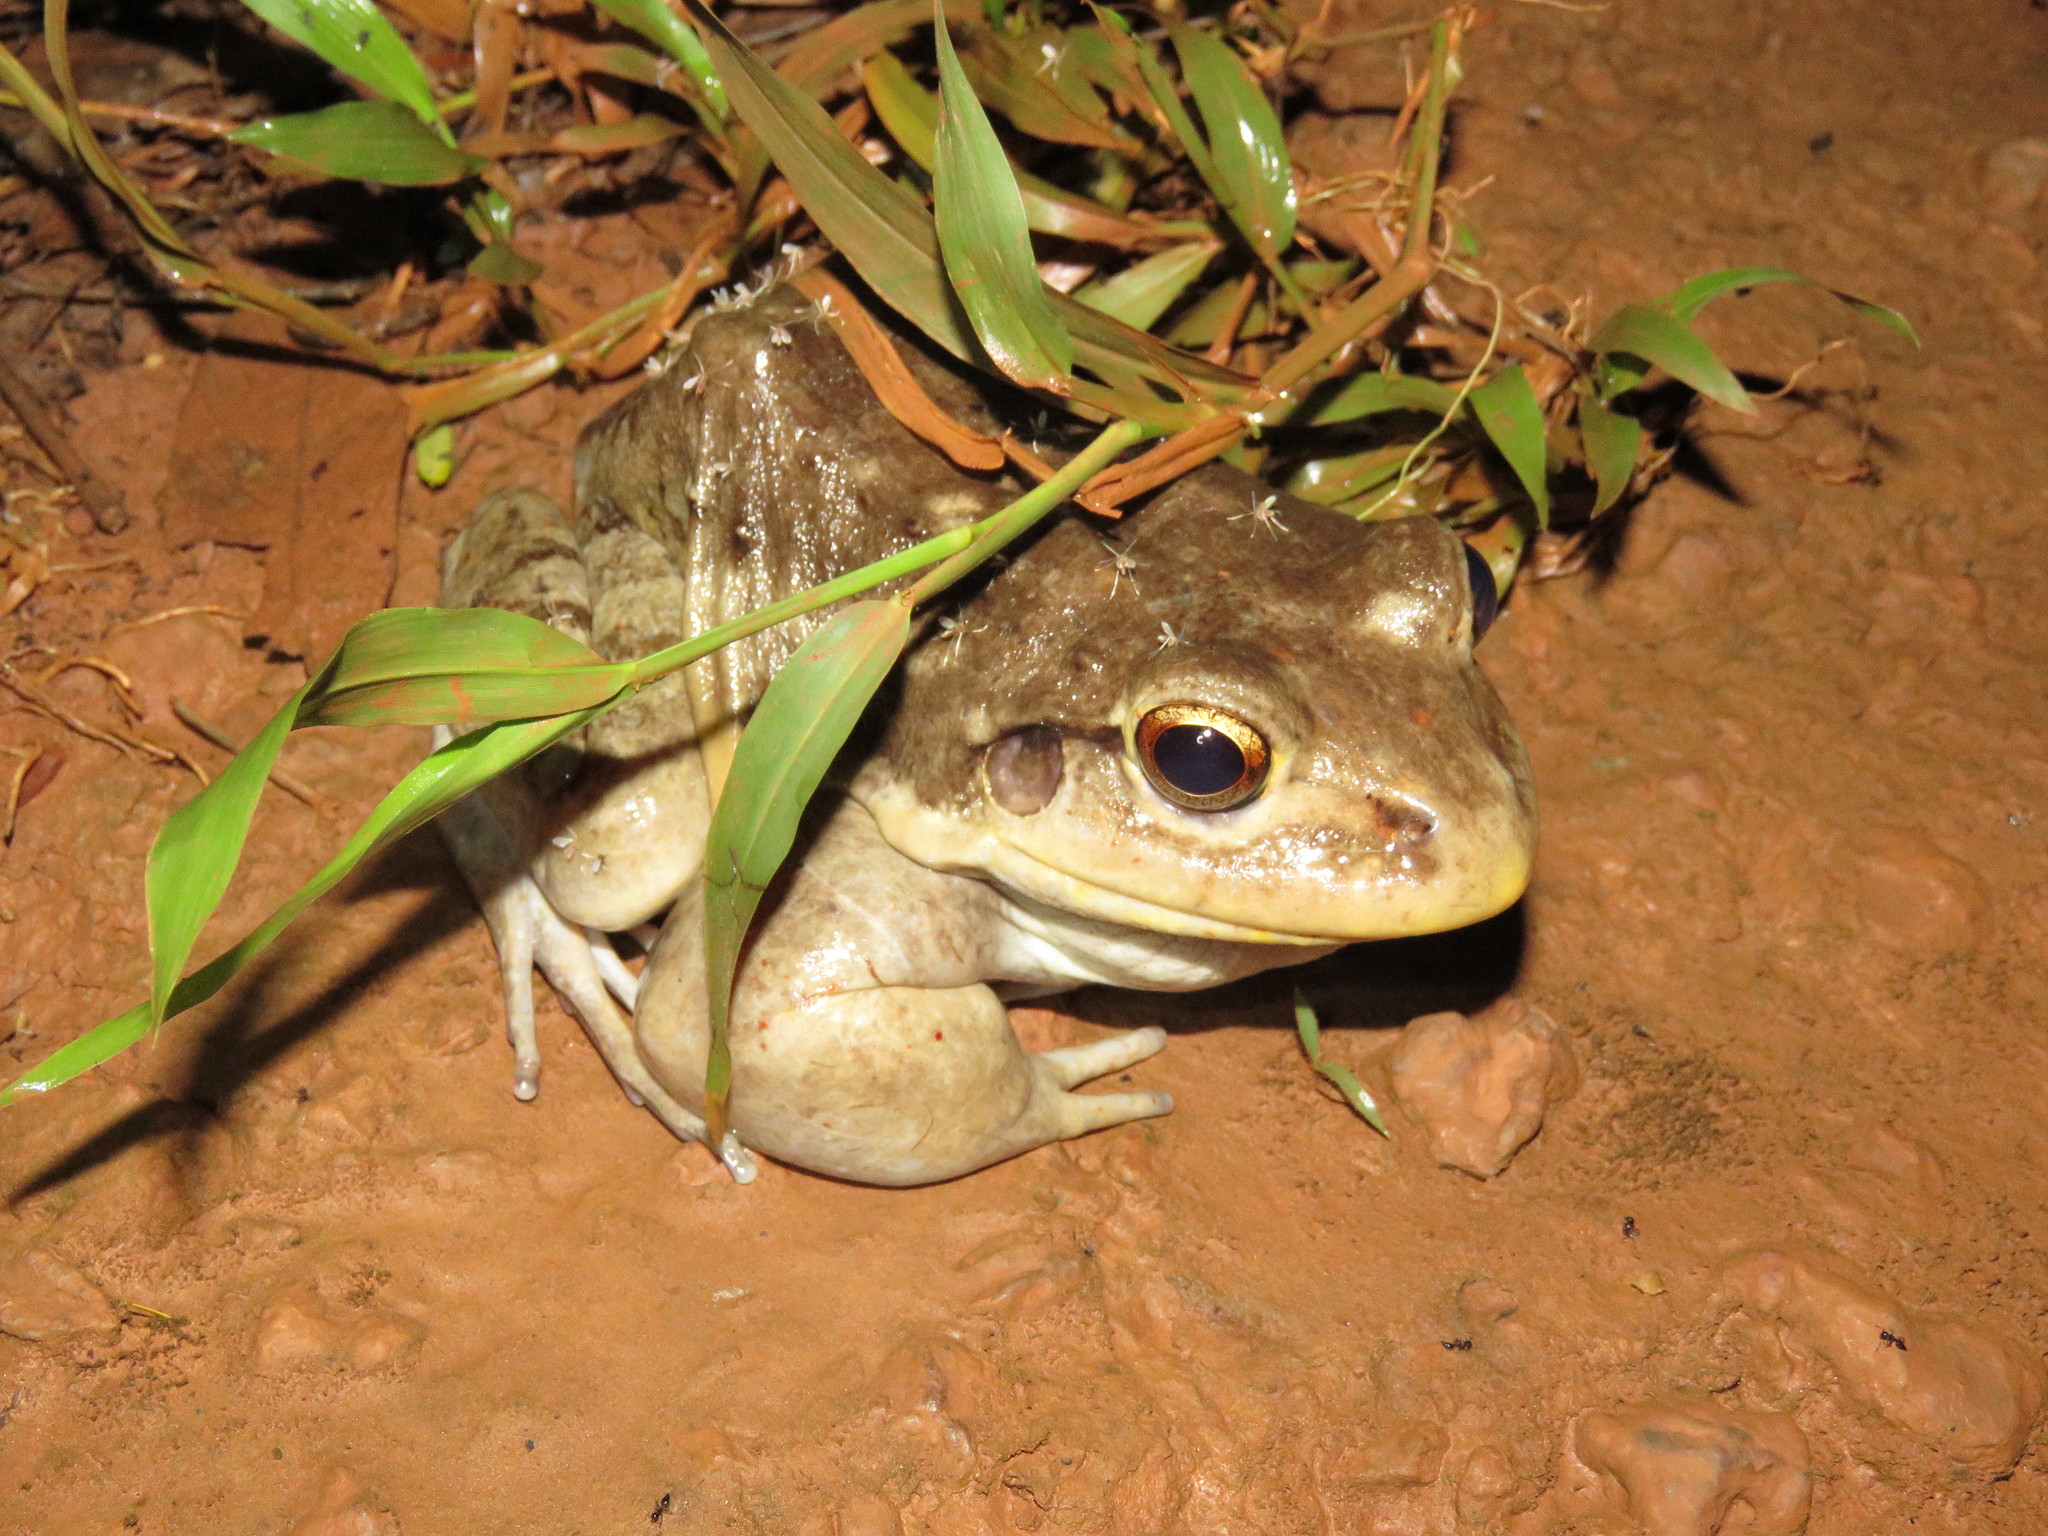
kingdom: Animalia
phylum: Chordata
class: Amphibia
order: Anura
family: Leptodactylidae
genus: Leptodactylus
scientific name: Leptodactylus vastus
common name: Northeastern pepper frog
